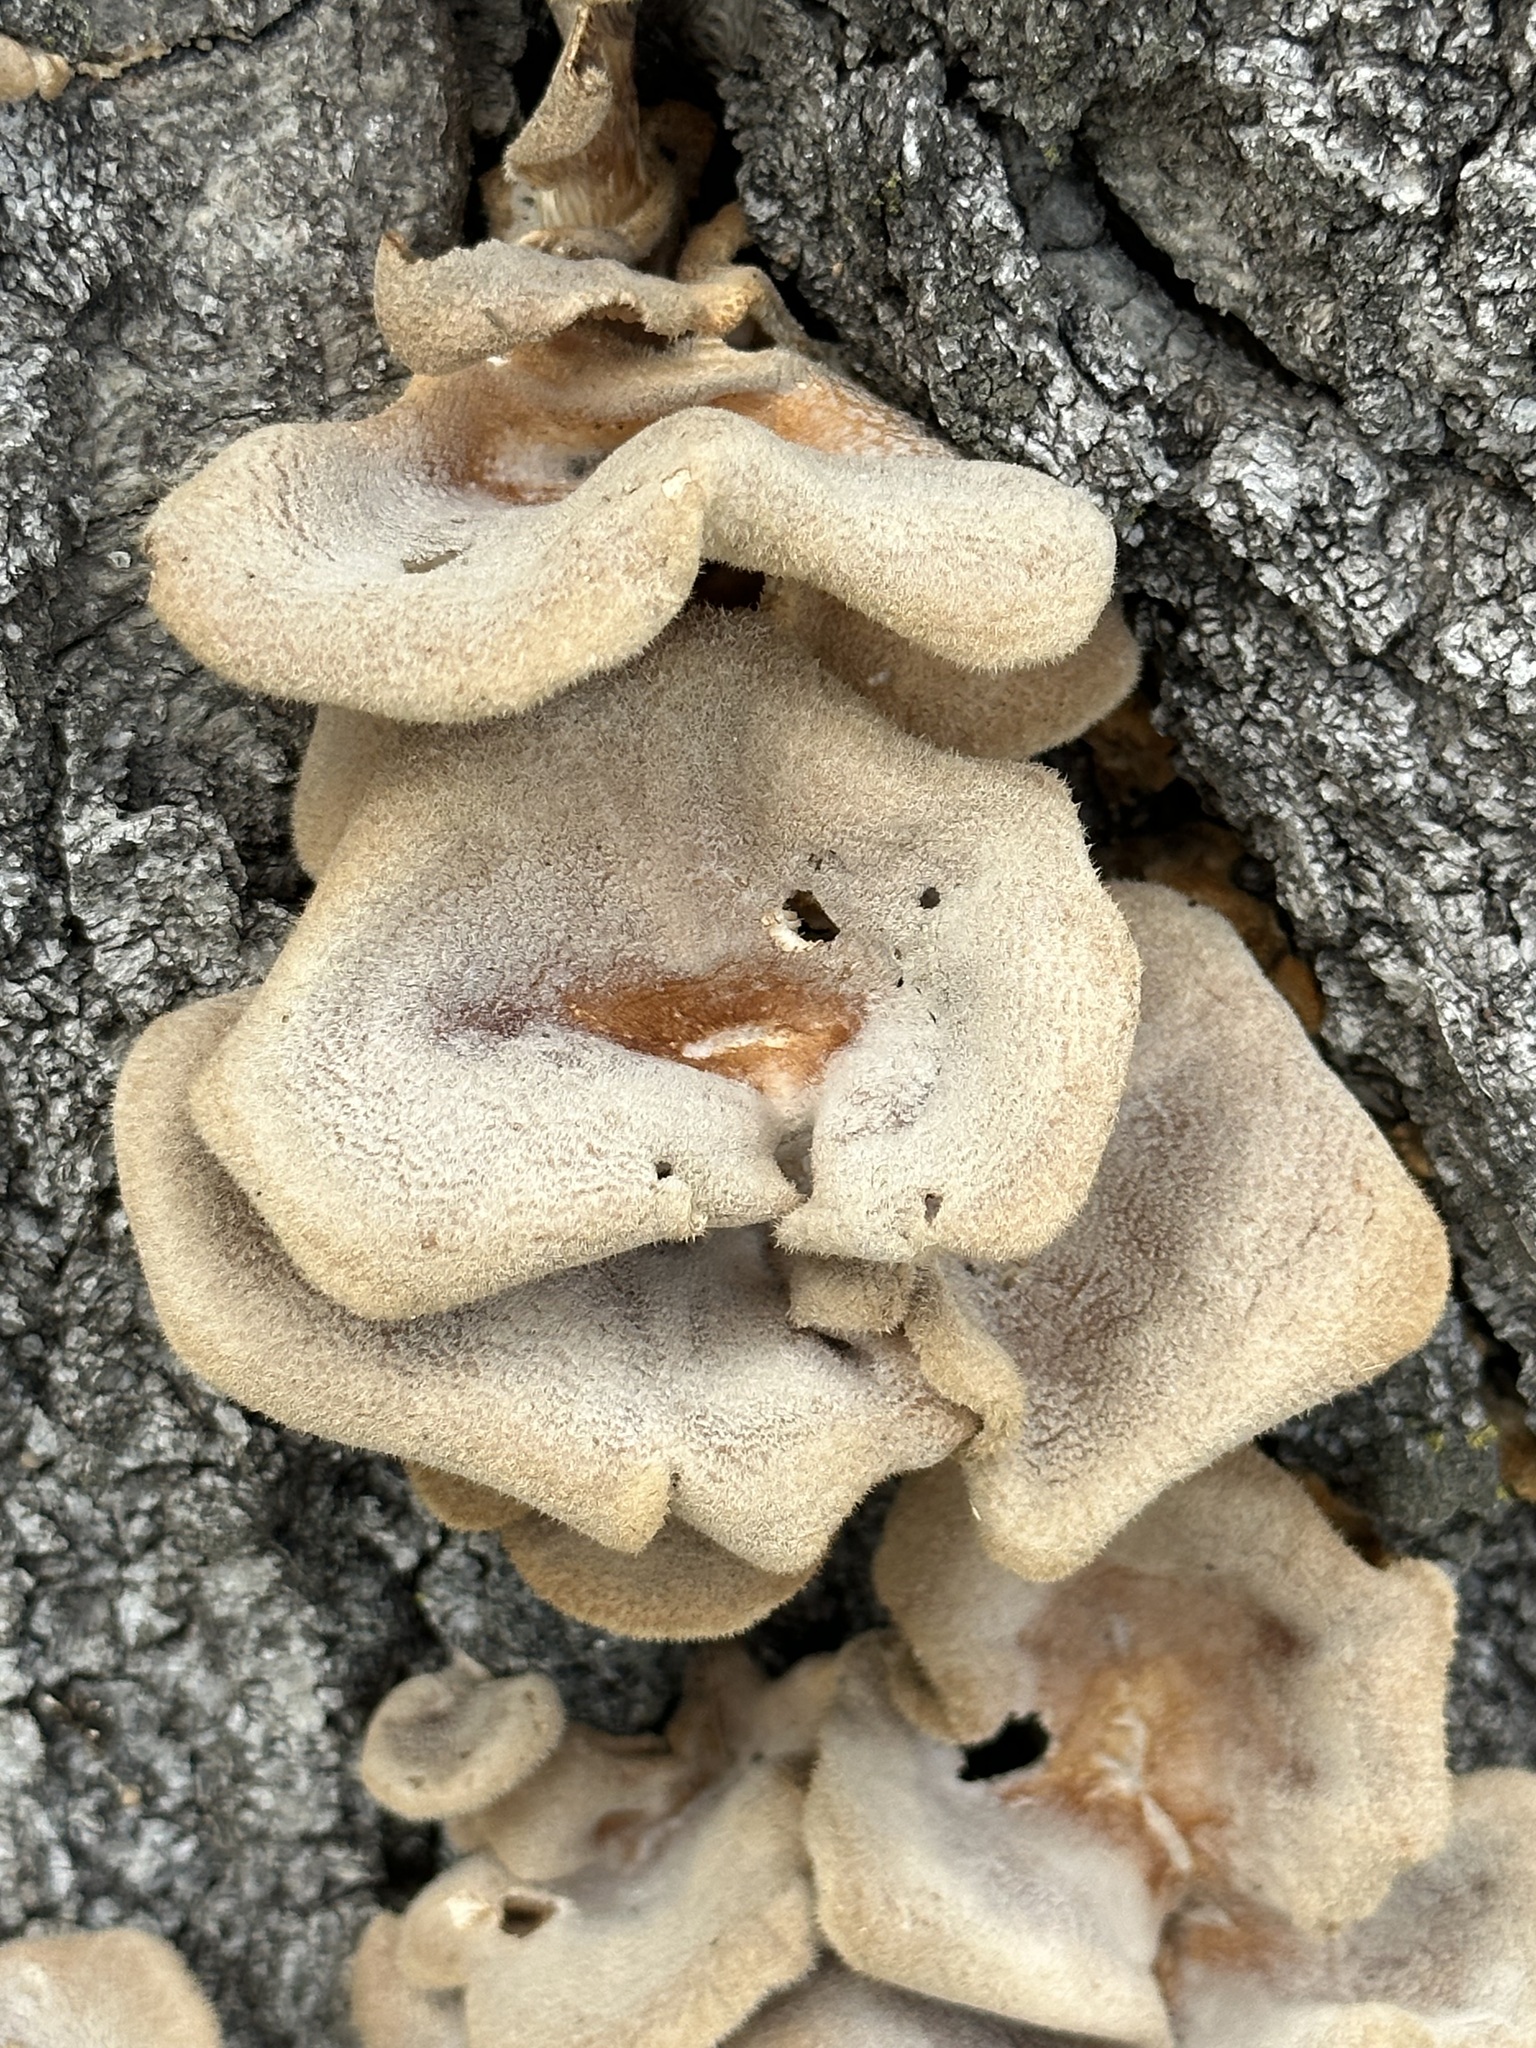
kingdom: Fungi
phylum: Basidiomycota
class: Agaricomycetes
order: Polyporales
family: Panaceae
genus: Panus
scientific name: Panus neostrigosus
